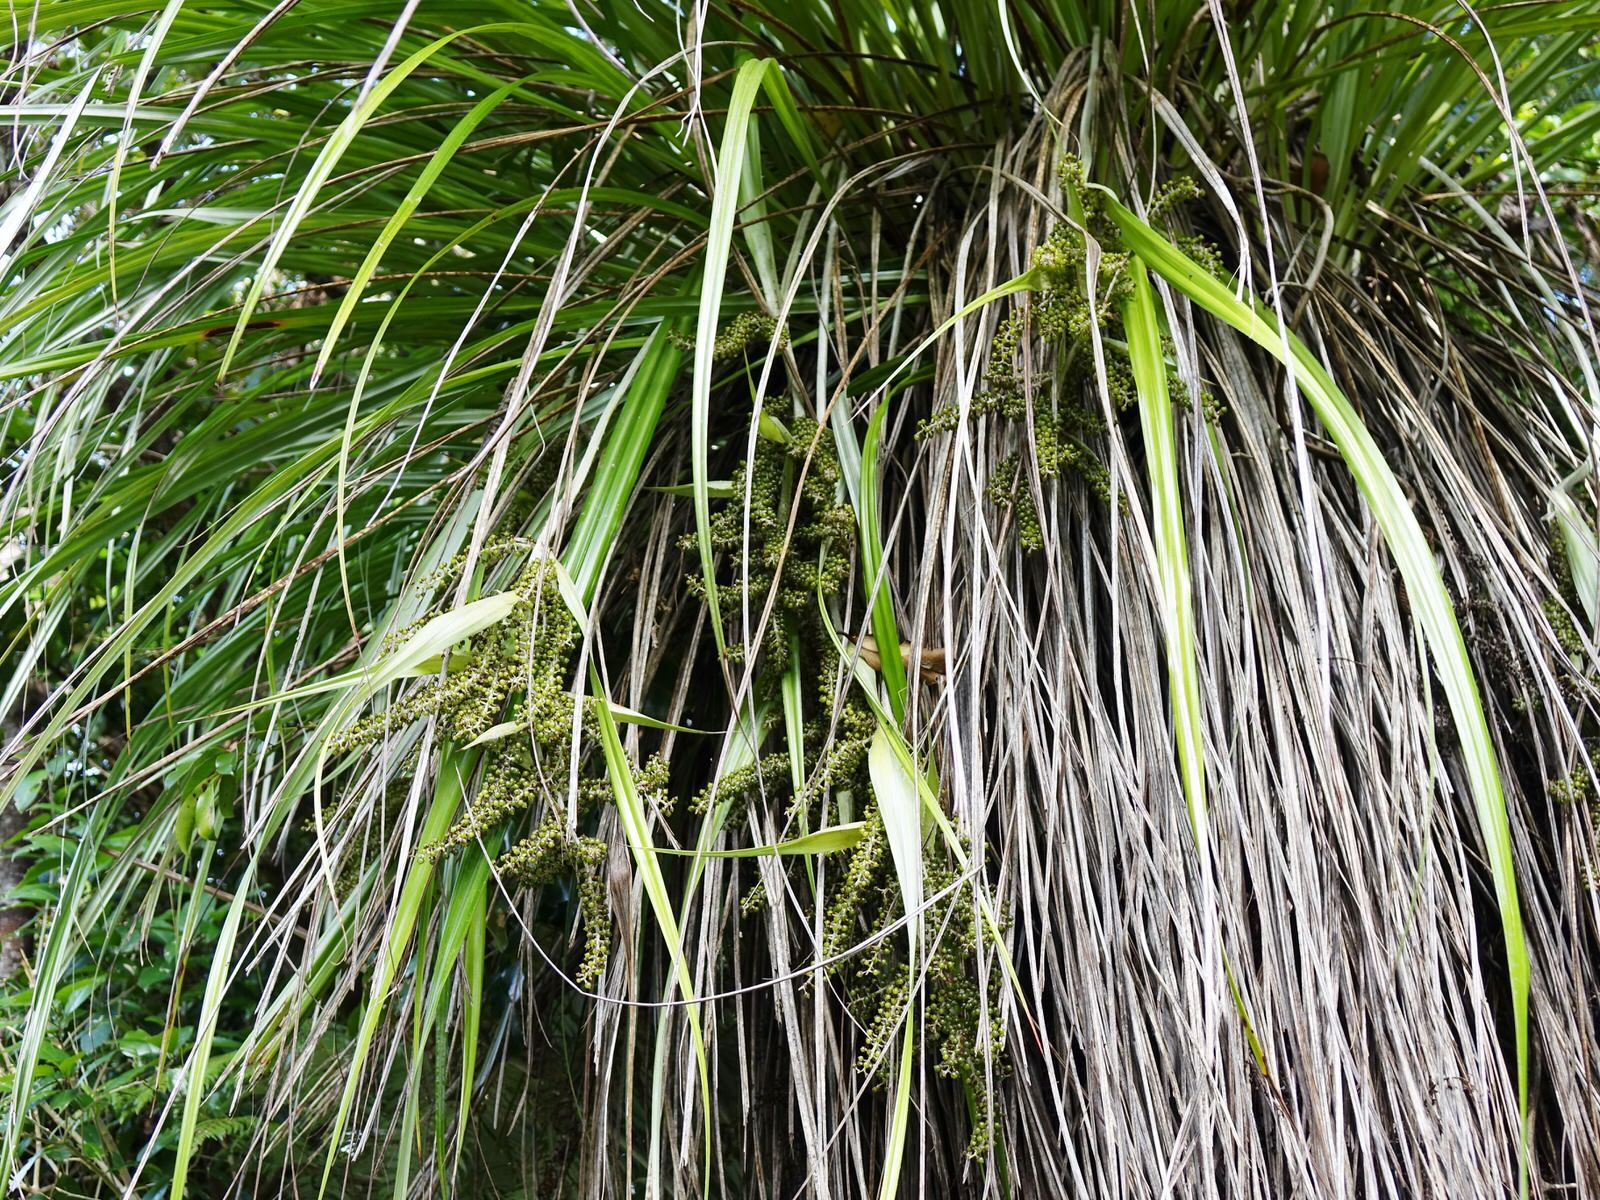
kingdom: Plantae
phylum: Tracheophyta
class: Liliopsida
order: Asparagales
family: Asteliaceae
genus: Astelia
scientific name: Astelia solandri
